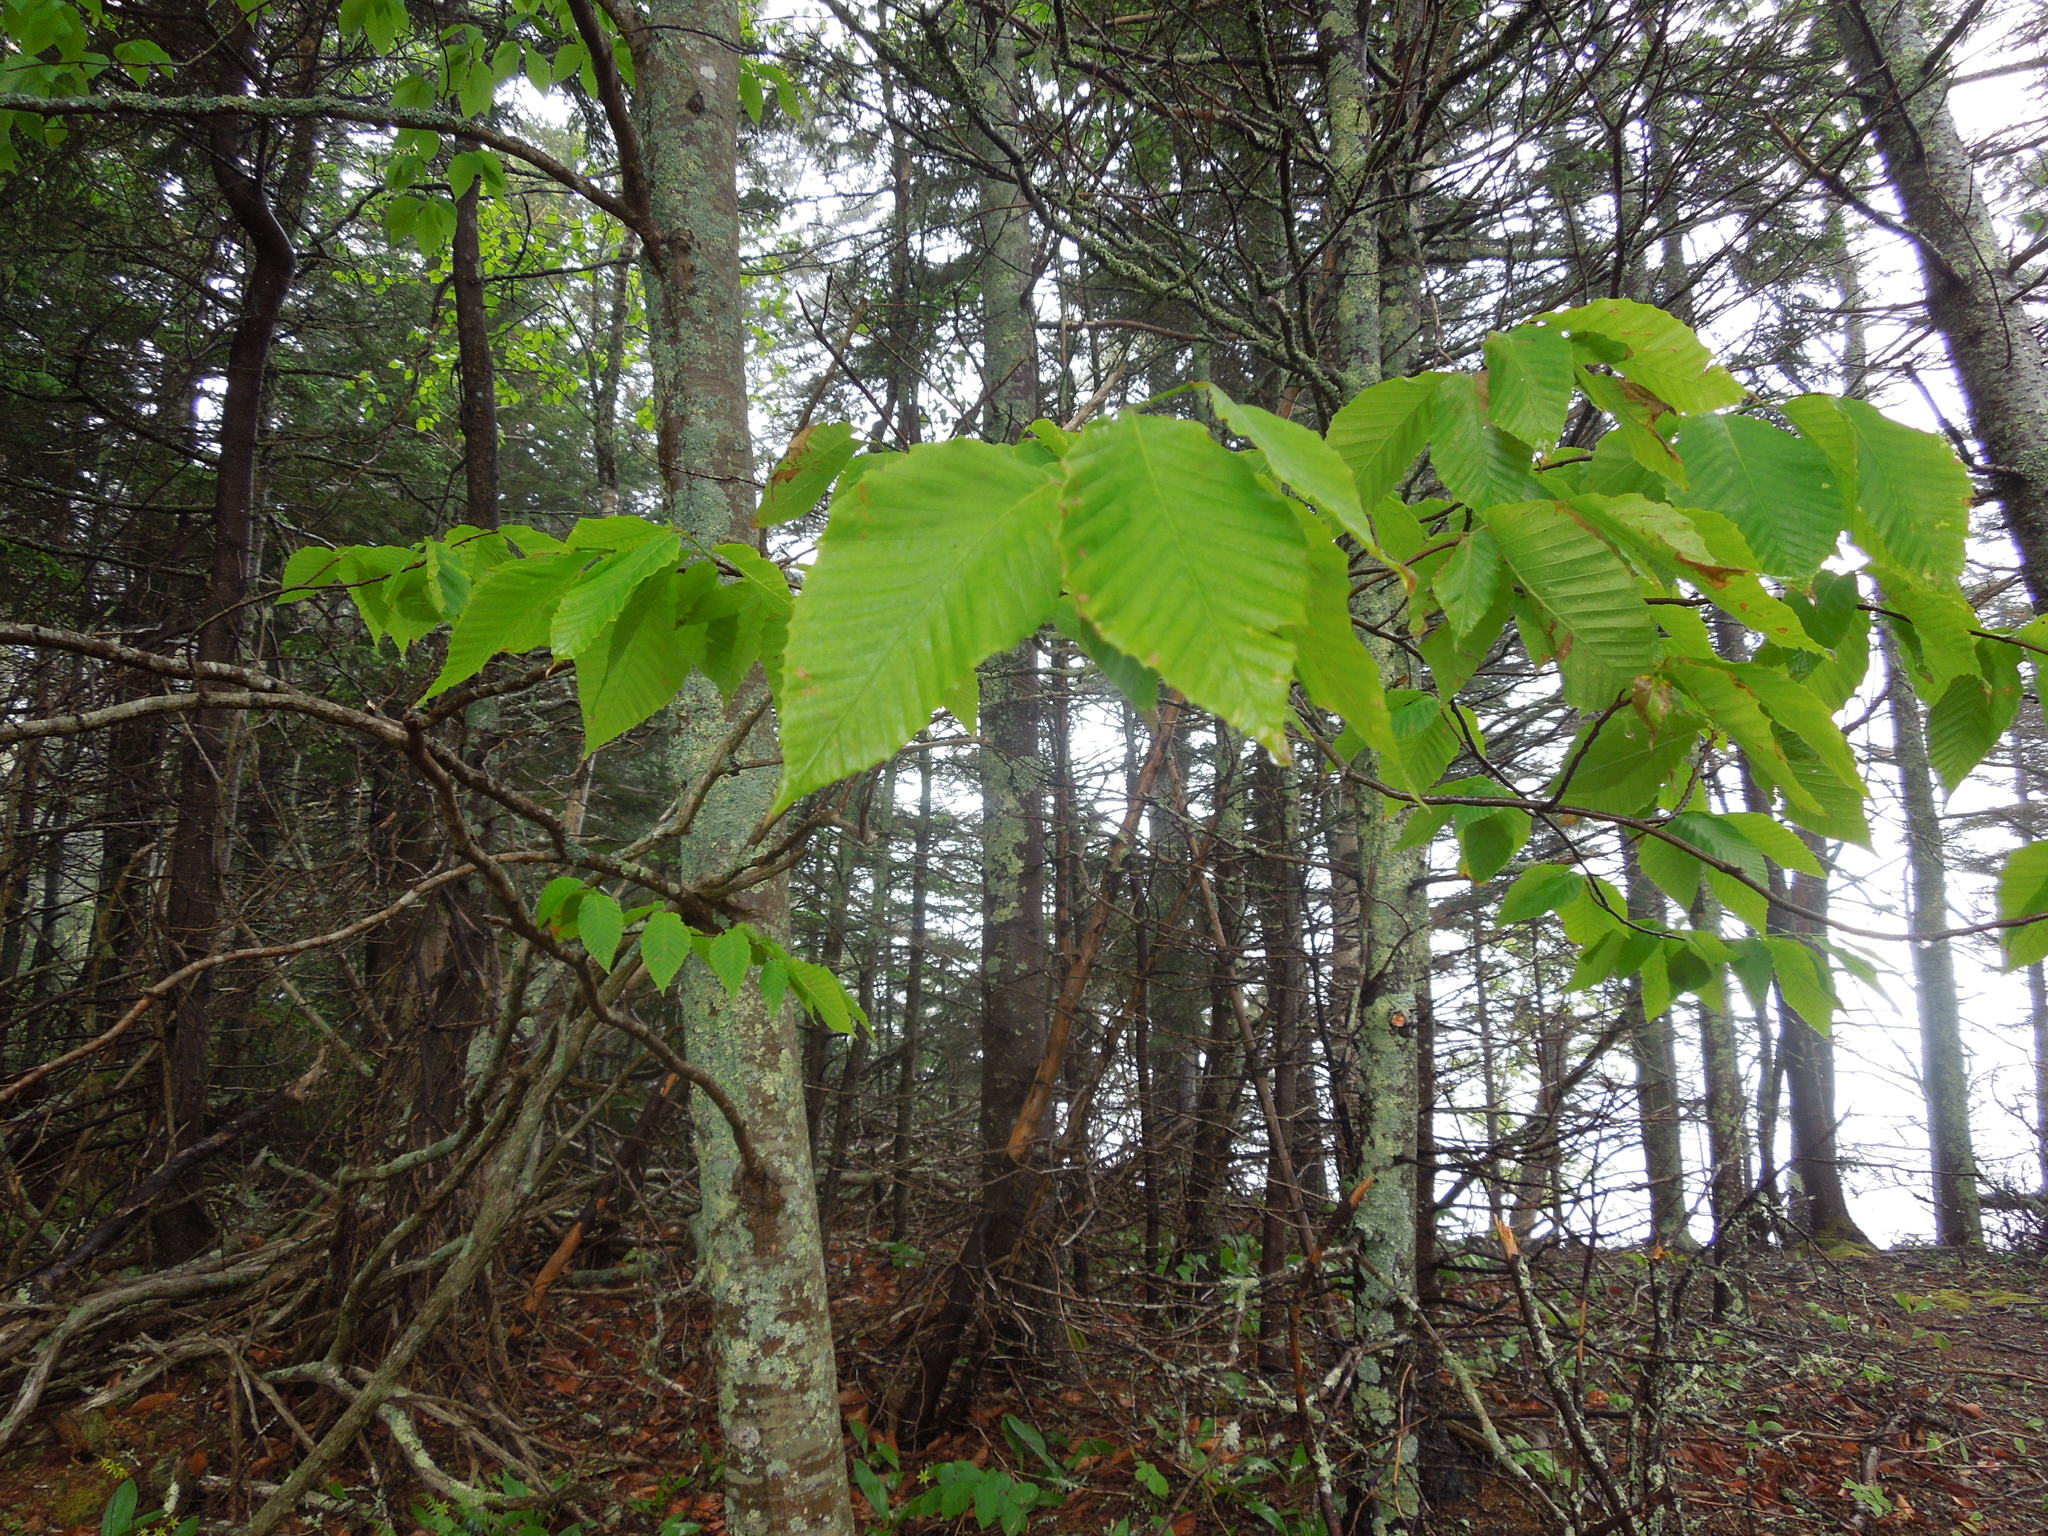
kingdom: Plantae
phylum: Tracheophyta
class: Magnoliopsida
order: Fagales
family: Fagaceae
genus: Fagus
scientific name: Fagus grandifolia
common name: American beech
